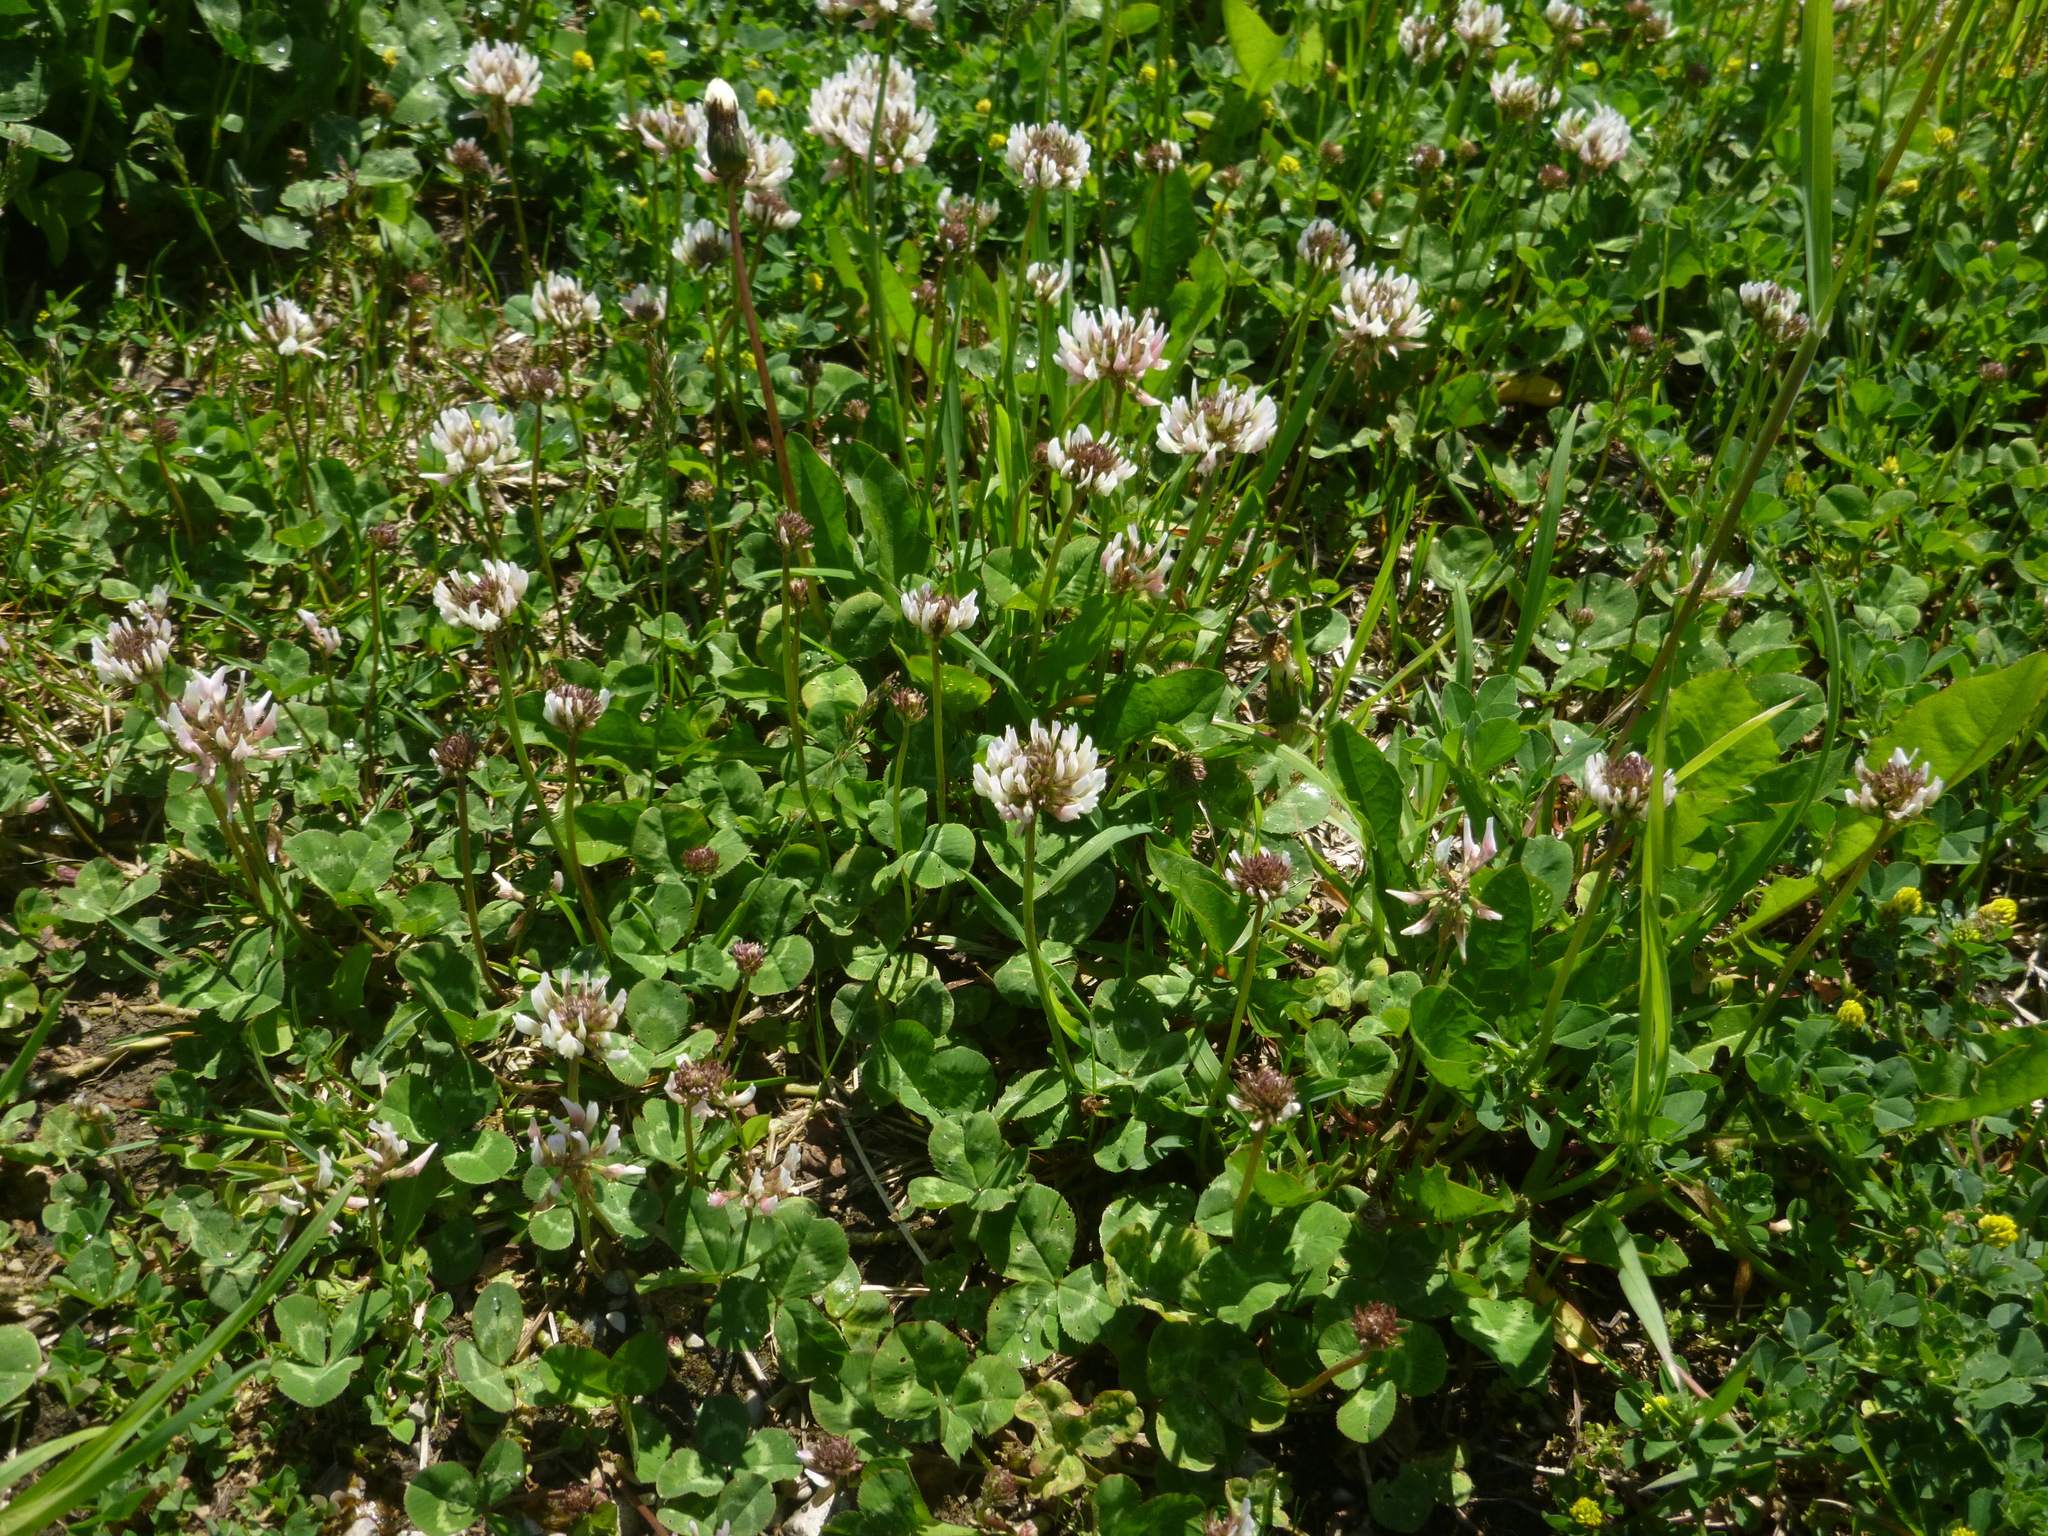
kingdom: Plantae
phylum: Tracheophyta
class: Magnoliopsida
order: Fabales
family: Fabaceae
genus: Trifolium
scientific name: Trifolium repens
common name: White clover
